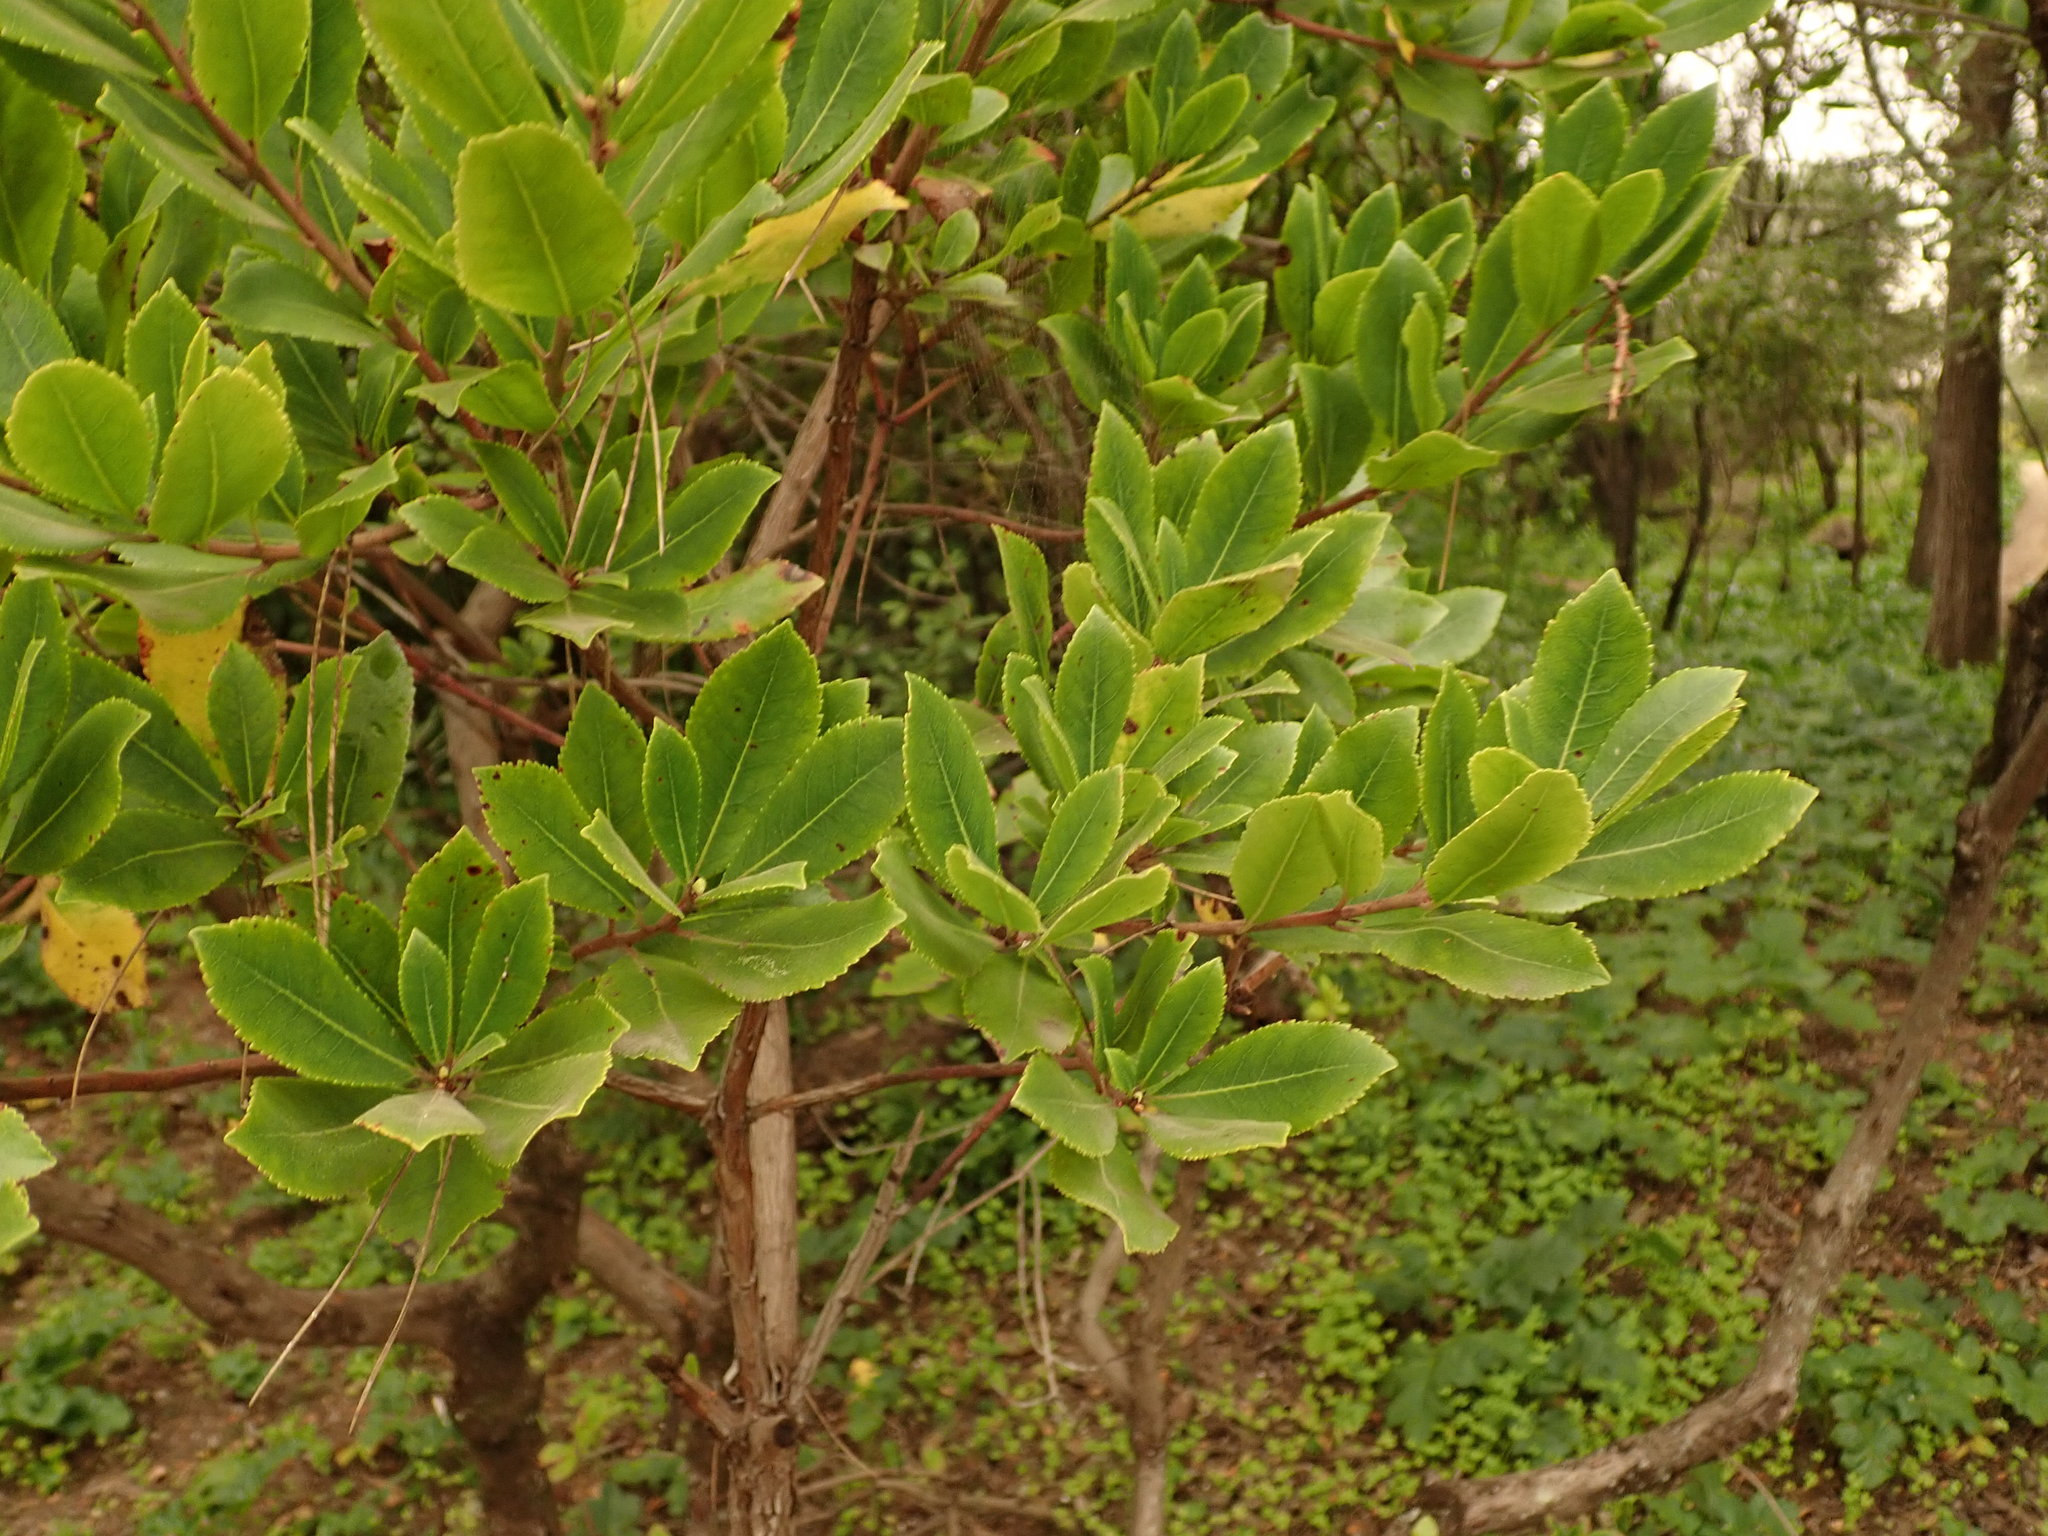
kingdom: Plantae
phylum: Tracheophyta
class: Magnoliopsida
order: Ericales
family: Ericaceae
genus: Arbutus
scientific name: Arbutus unedo
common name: Strawberry-tree
